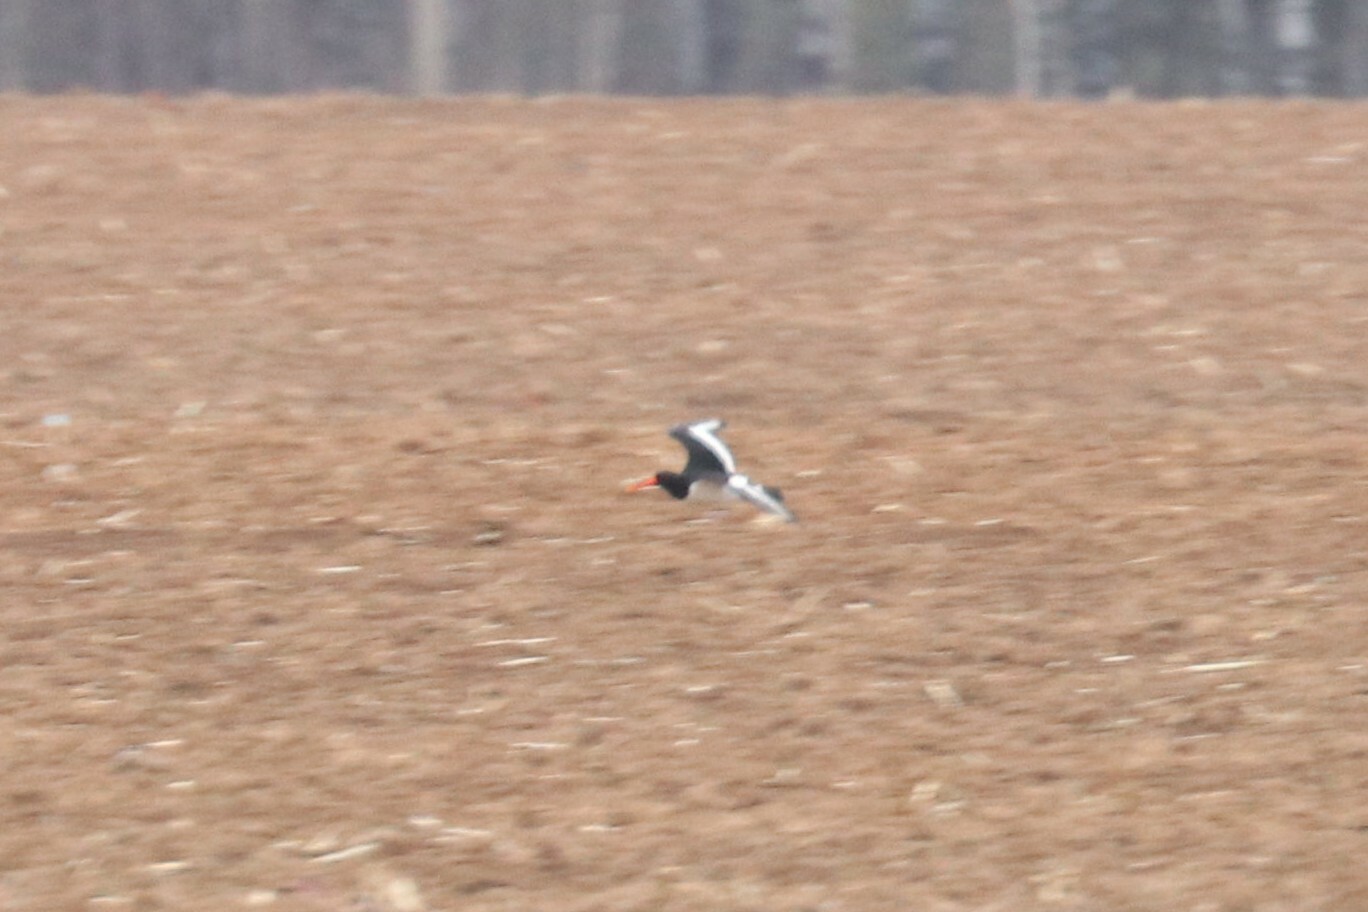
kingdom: Animalia
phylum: Chordata
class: Aves
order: Charadriiformes
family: Haematopodidae
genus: Haematopus
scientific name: Haematopus ostralegus
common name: Eurasian oystercatcher
